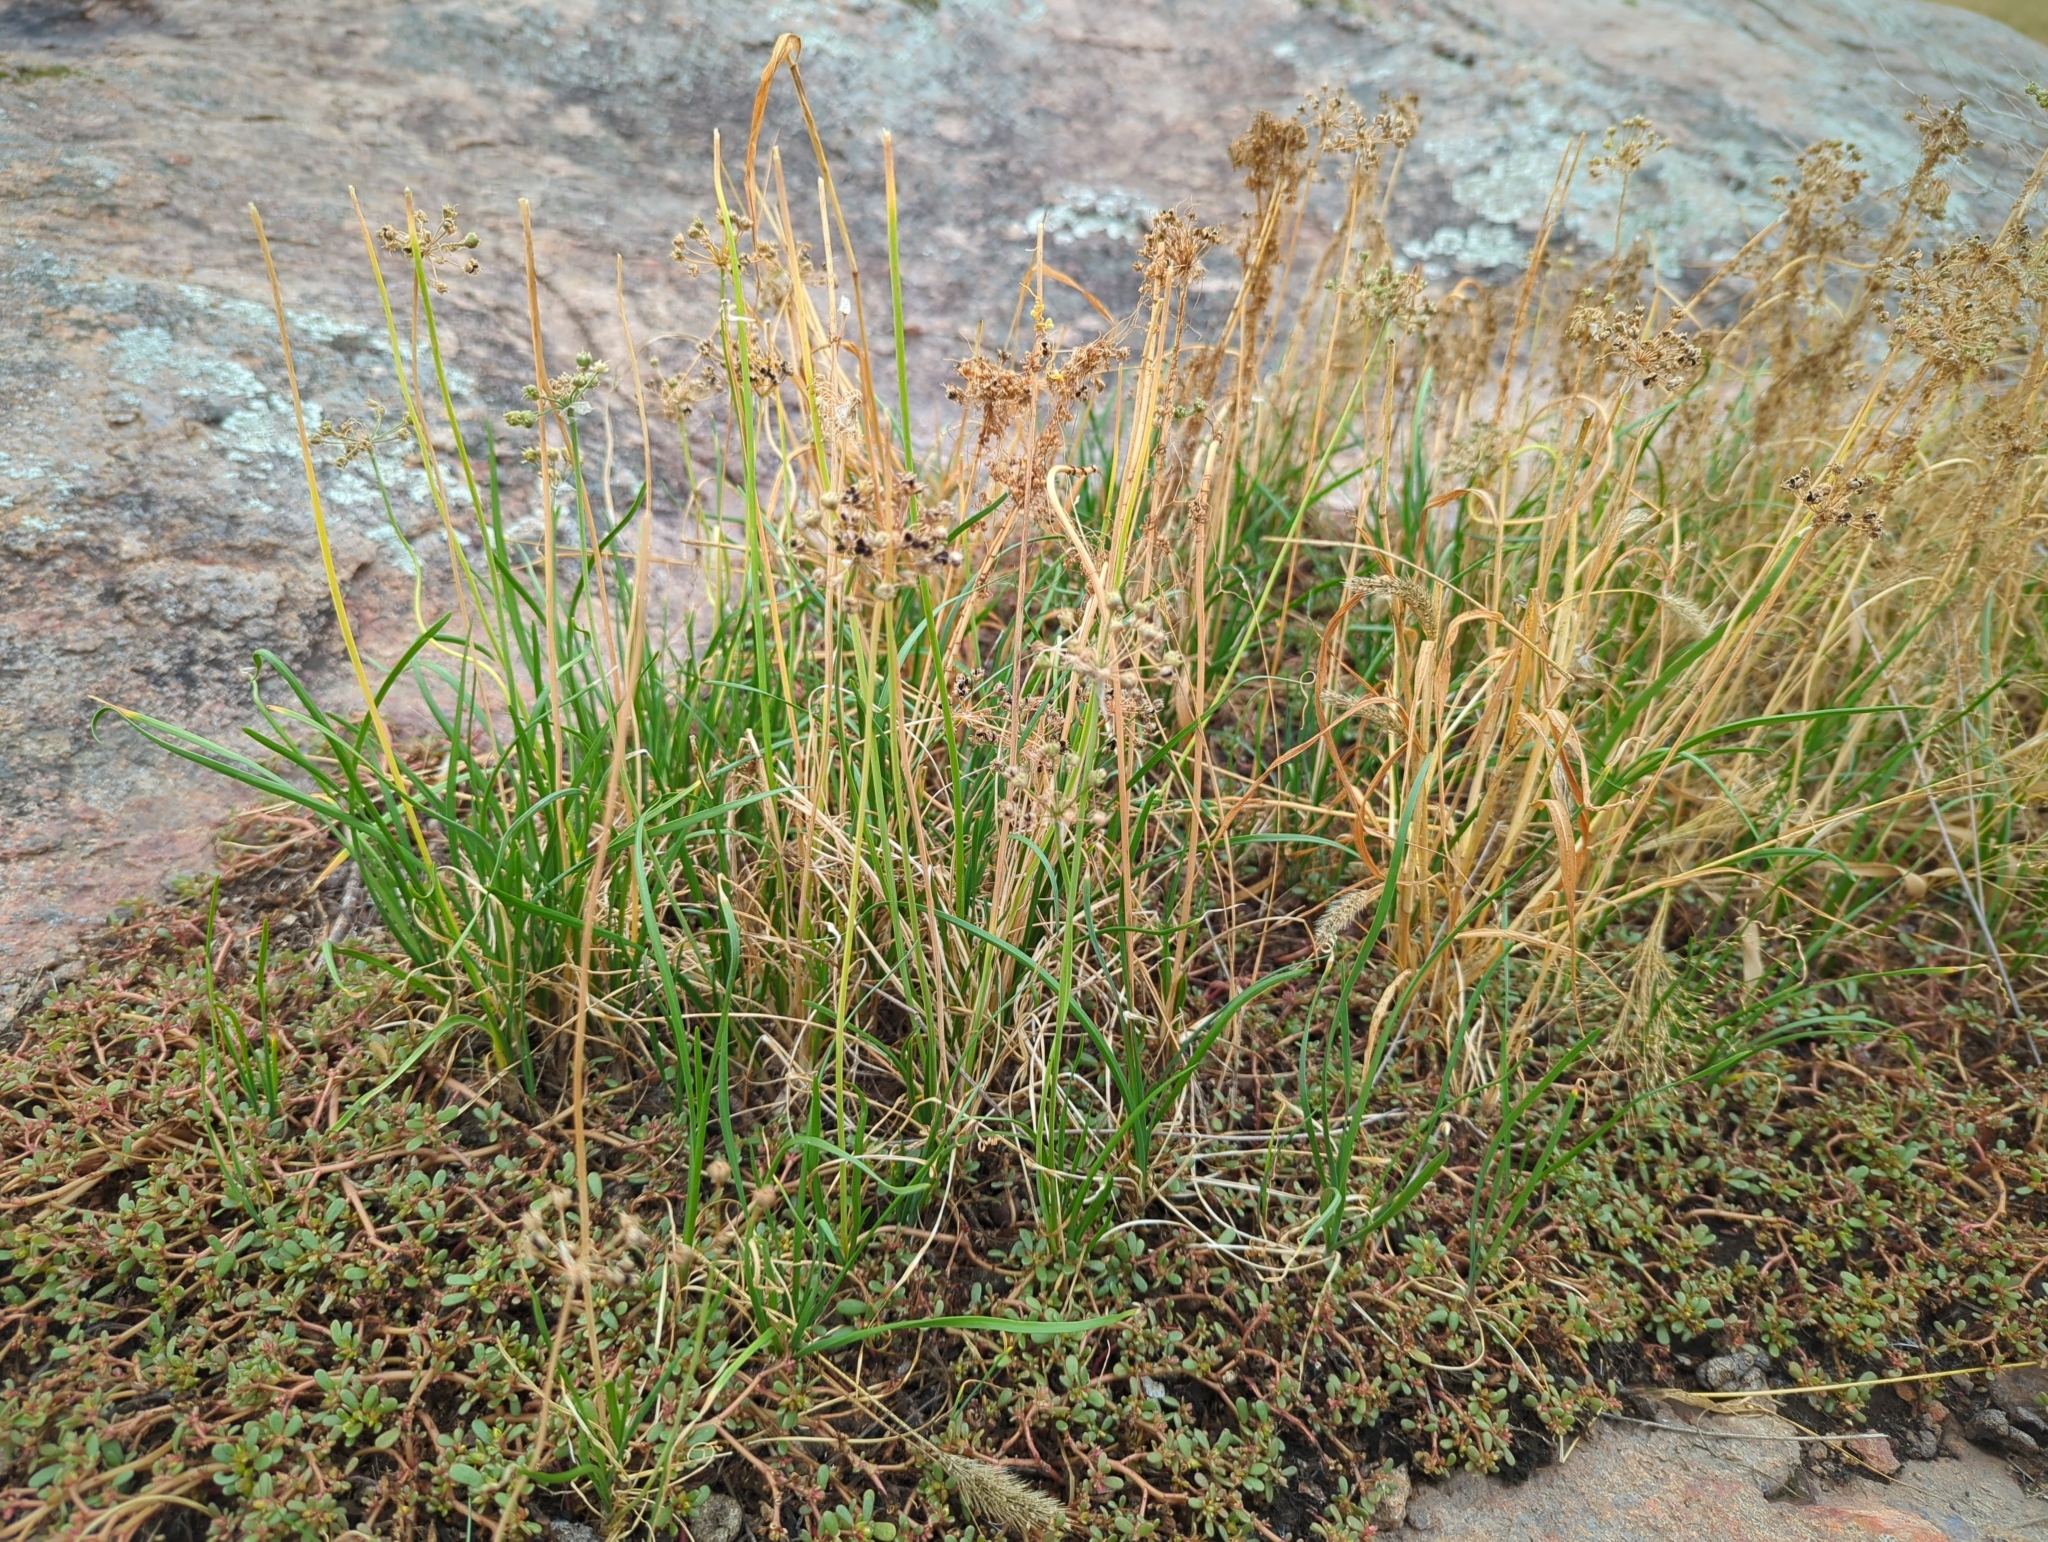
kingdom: Plantae
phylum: Tracheophyta
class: Liliopsida
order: Asparagales
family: Amaryllidaceae
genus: Allium
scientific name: Allium stellatum
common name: Autumn onion
